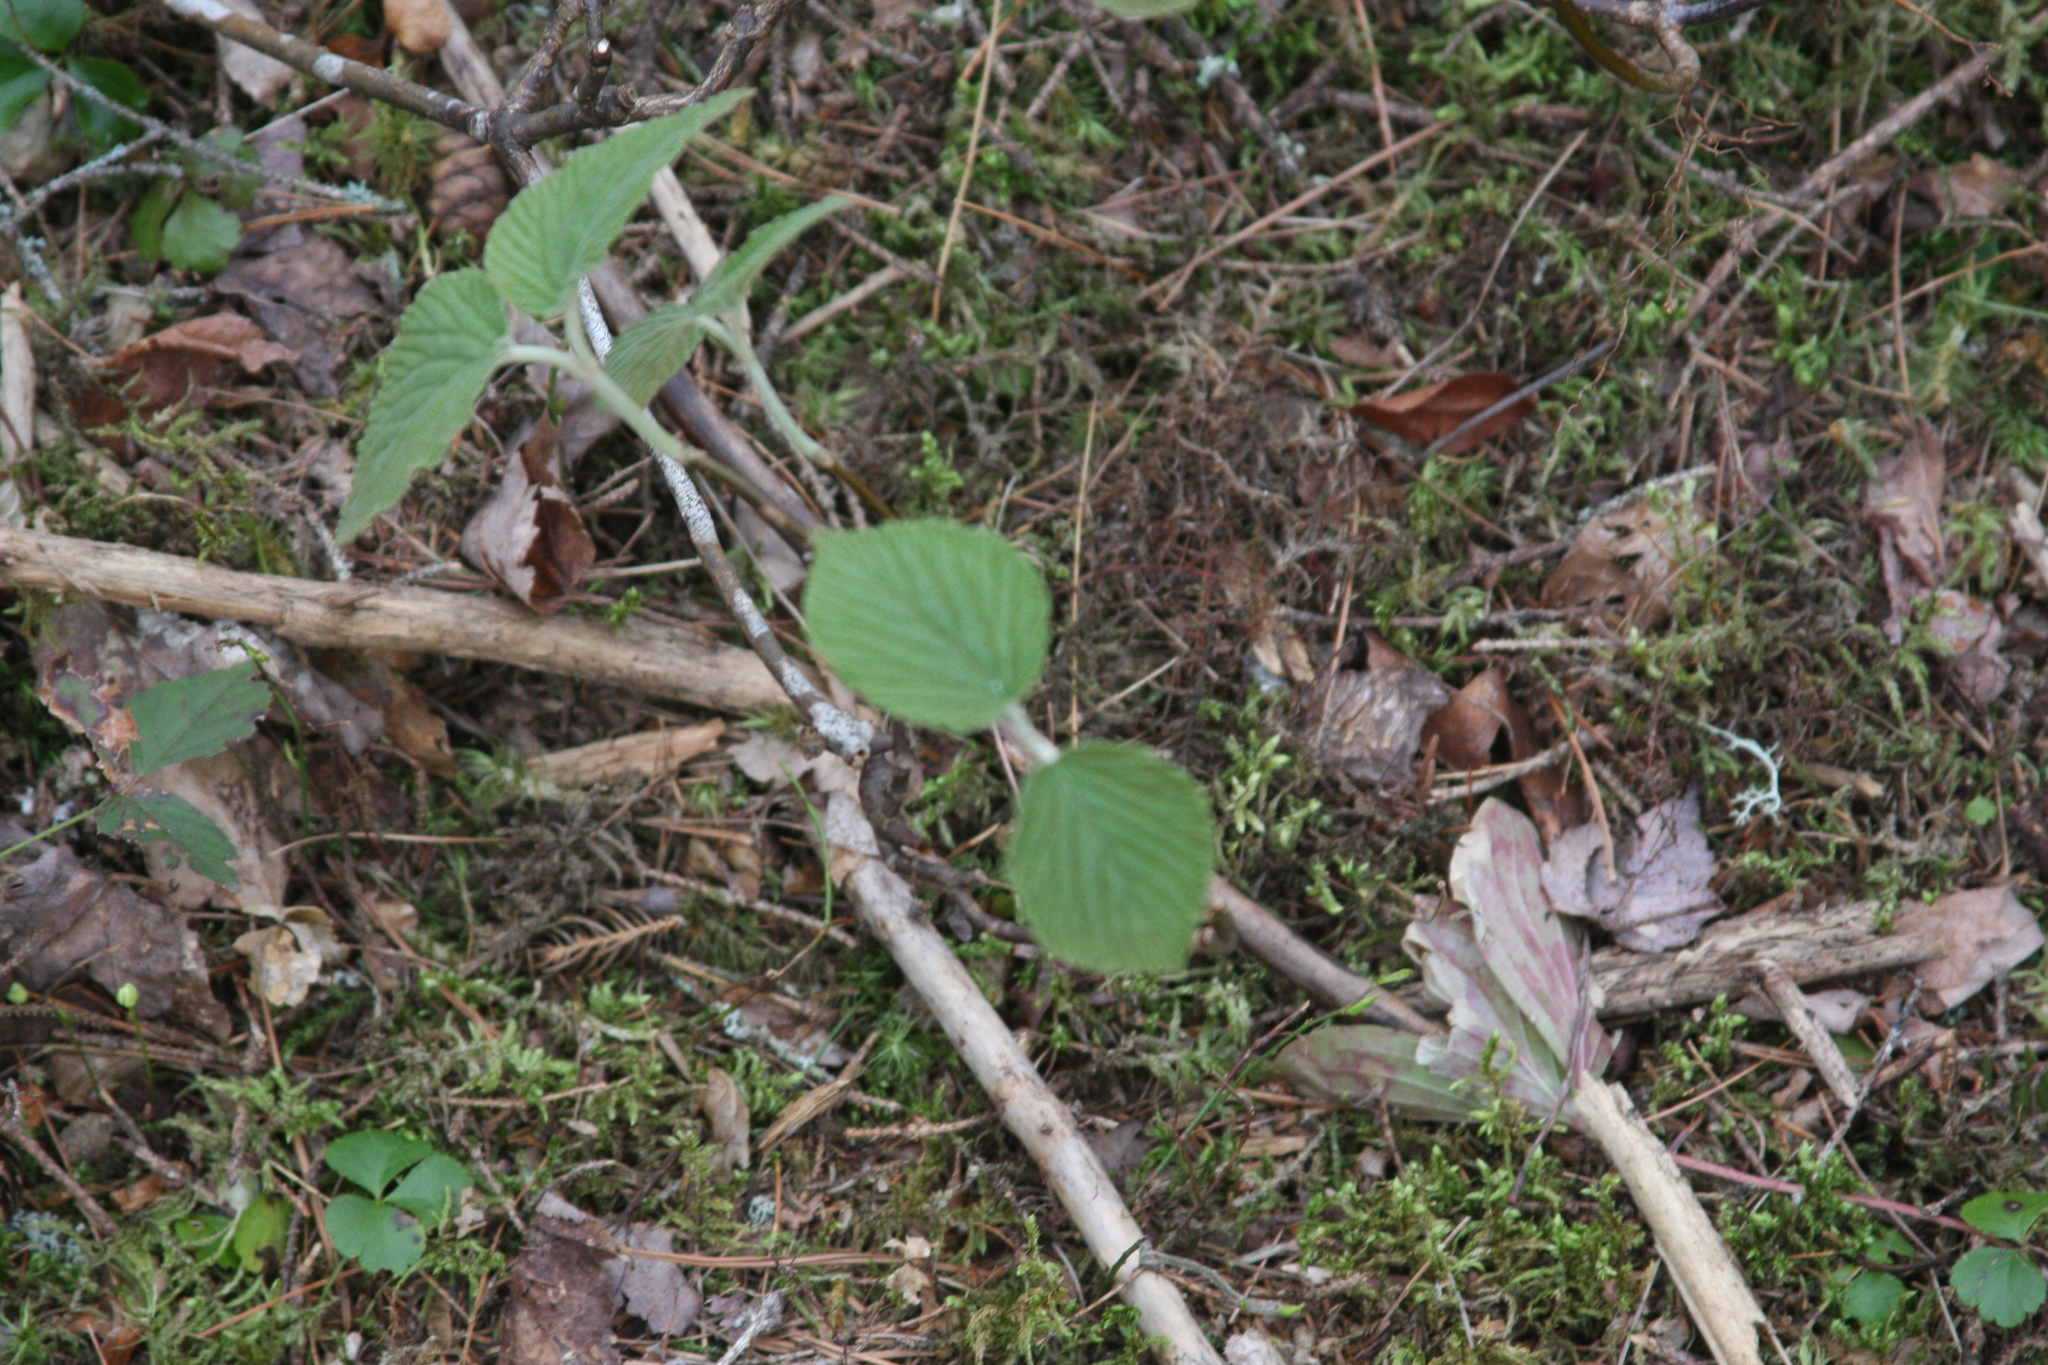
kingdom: Plantae
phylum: Tracheophyta
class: Magnoliopsida
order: Dipsacales
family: Viburnaceae
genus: Viburnum
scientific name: Viburnum lantanoides
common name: Hobblebush
